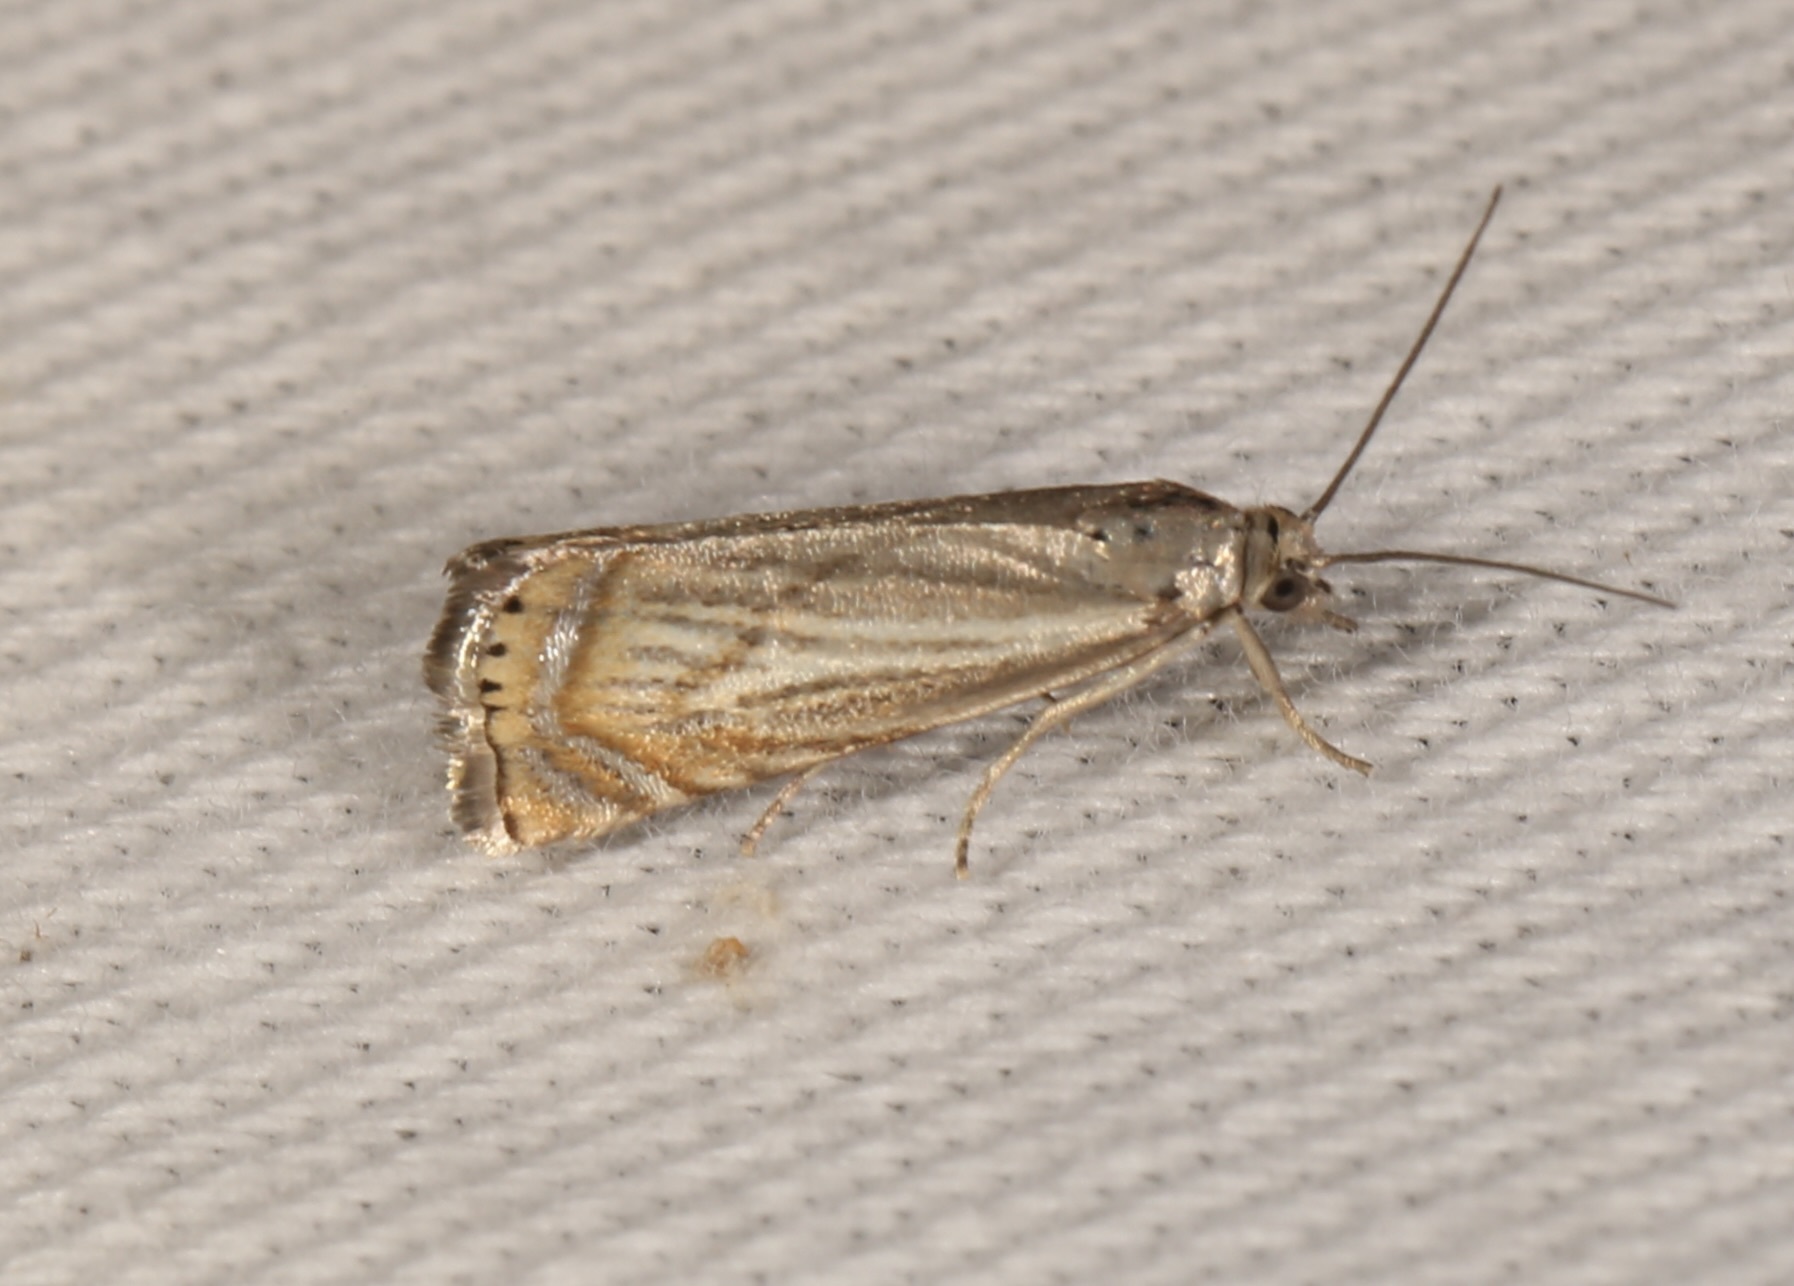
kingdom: Animalia
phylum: Arthropoda
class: Insecta
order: Lepidoptera
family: Crambidae
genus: Chrysoteuchia
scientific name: Chrysoteuchia topiarius
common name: Topiary grass-veneer
